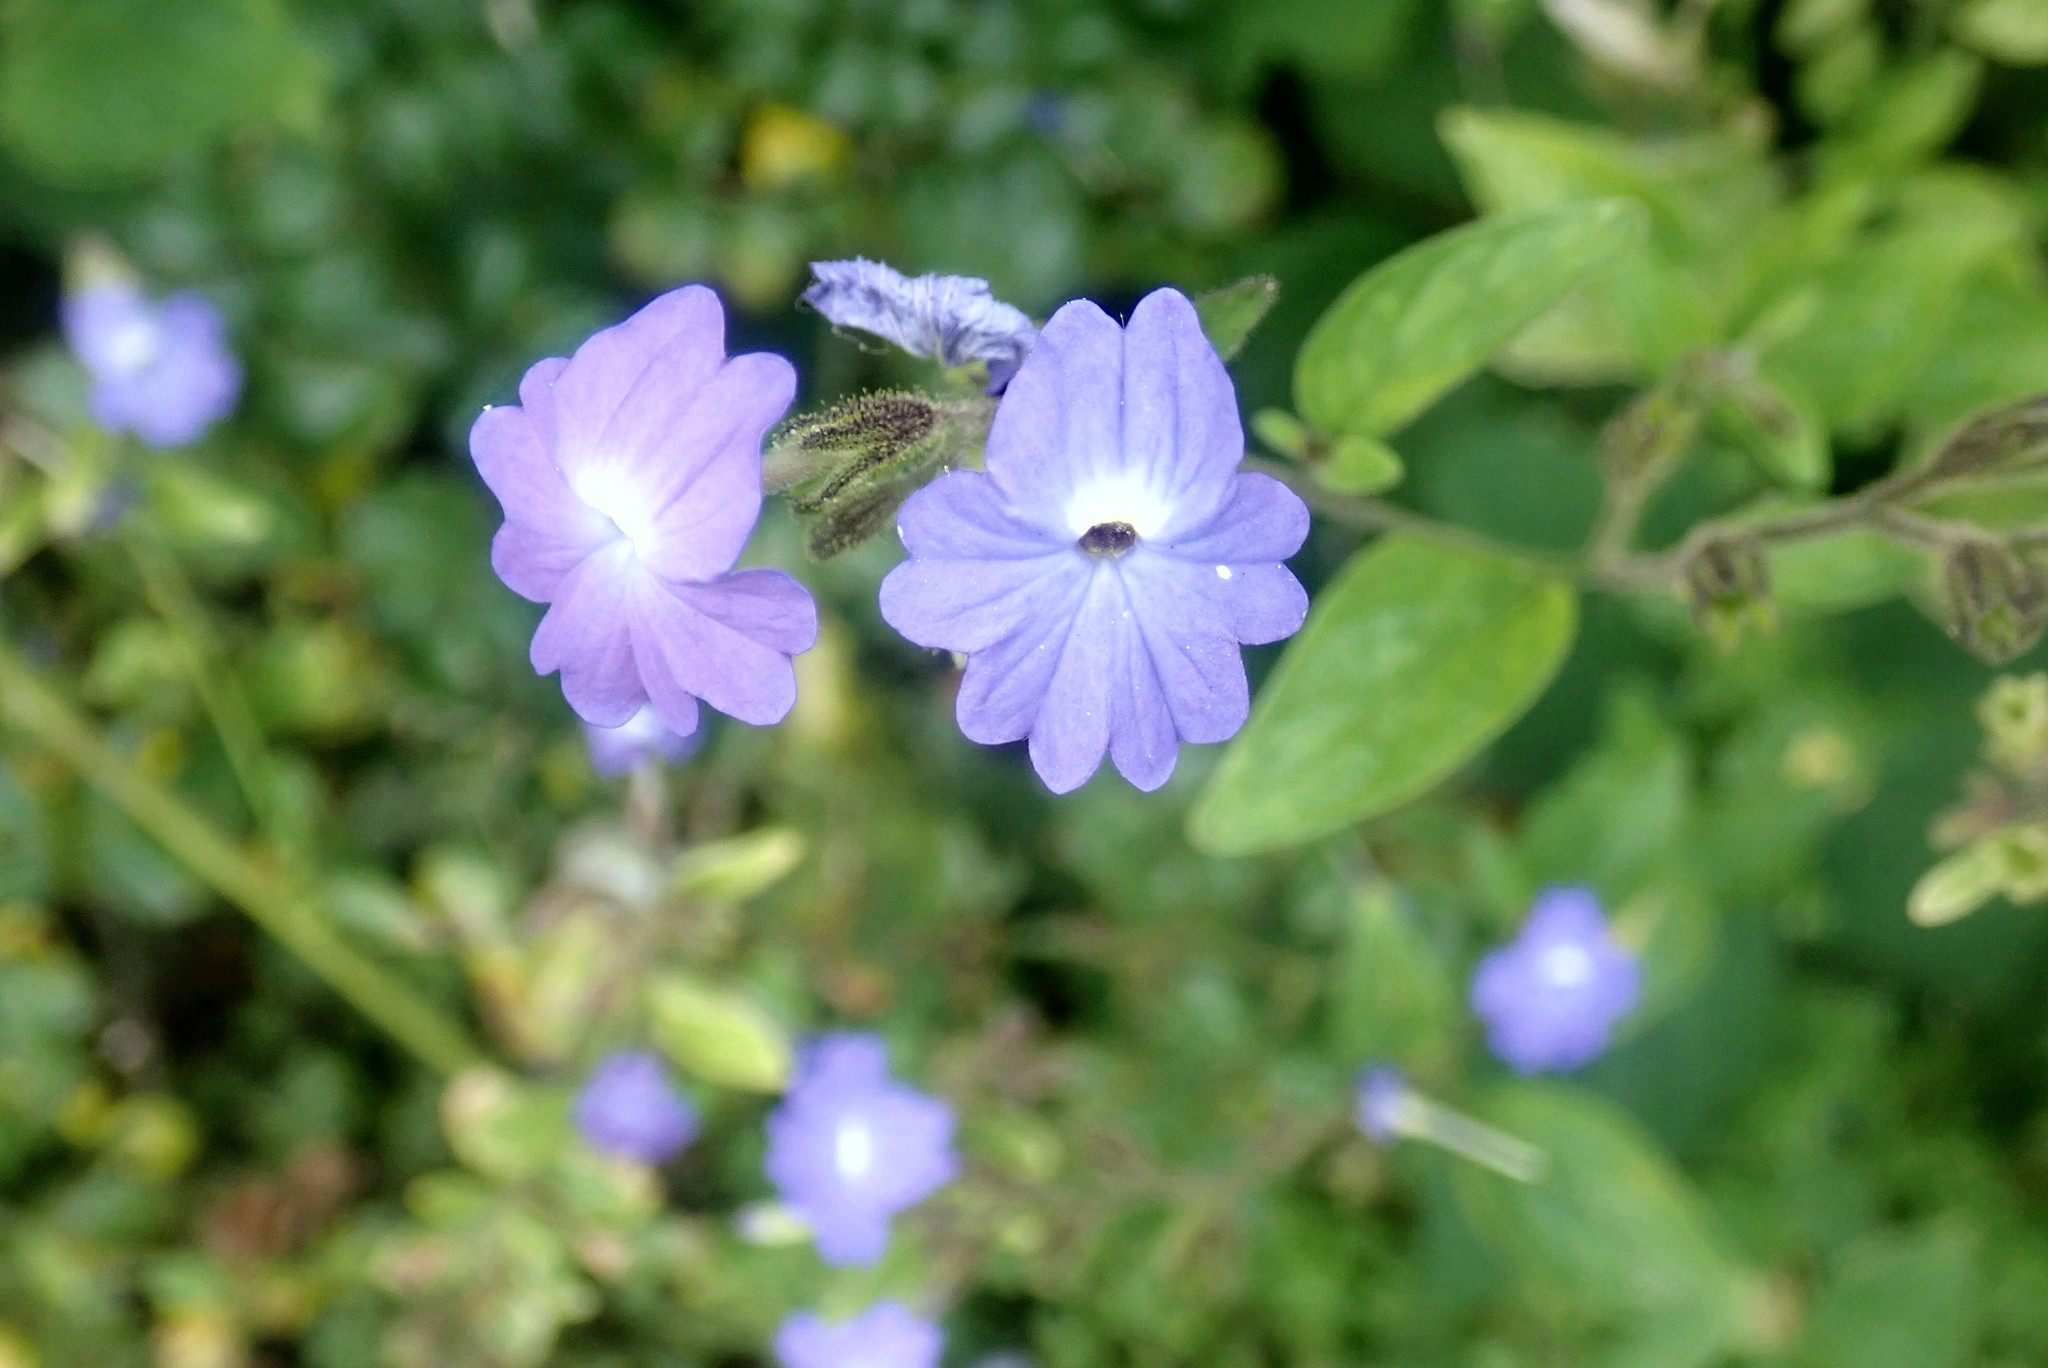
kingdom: Plantae
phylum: Tracheophyta
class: Magnoliopsida
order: Solanales
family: Solanaceae
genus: Browallia
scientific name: Browallia americana
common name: Jamaican forget-me-not
